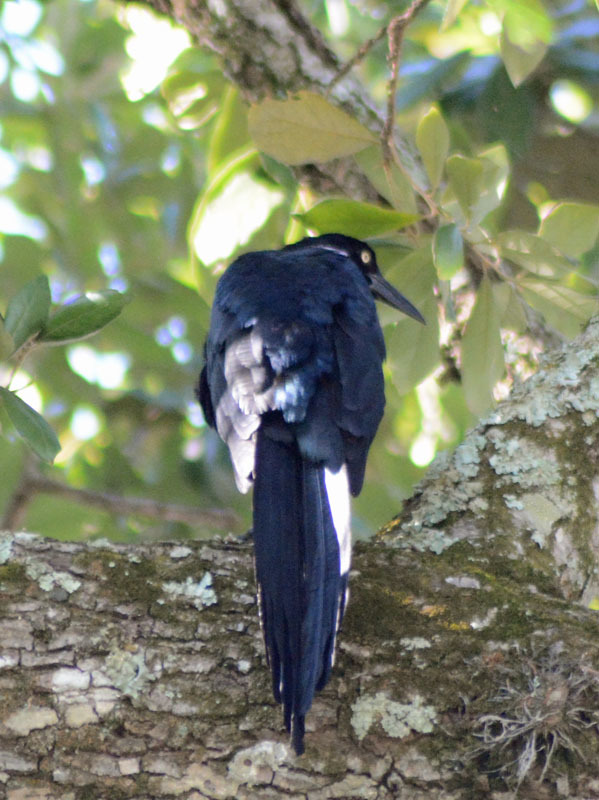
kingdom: Animalia
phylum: Chordata
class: Aves
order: Passeriformes
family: Icteridae
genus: Quiscalus
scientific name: Quiscalus mexicanus
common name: Great-tailed grackle
